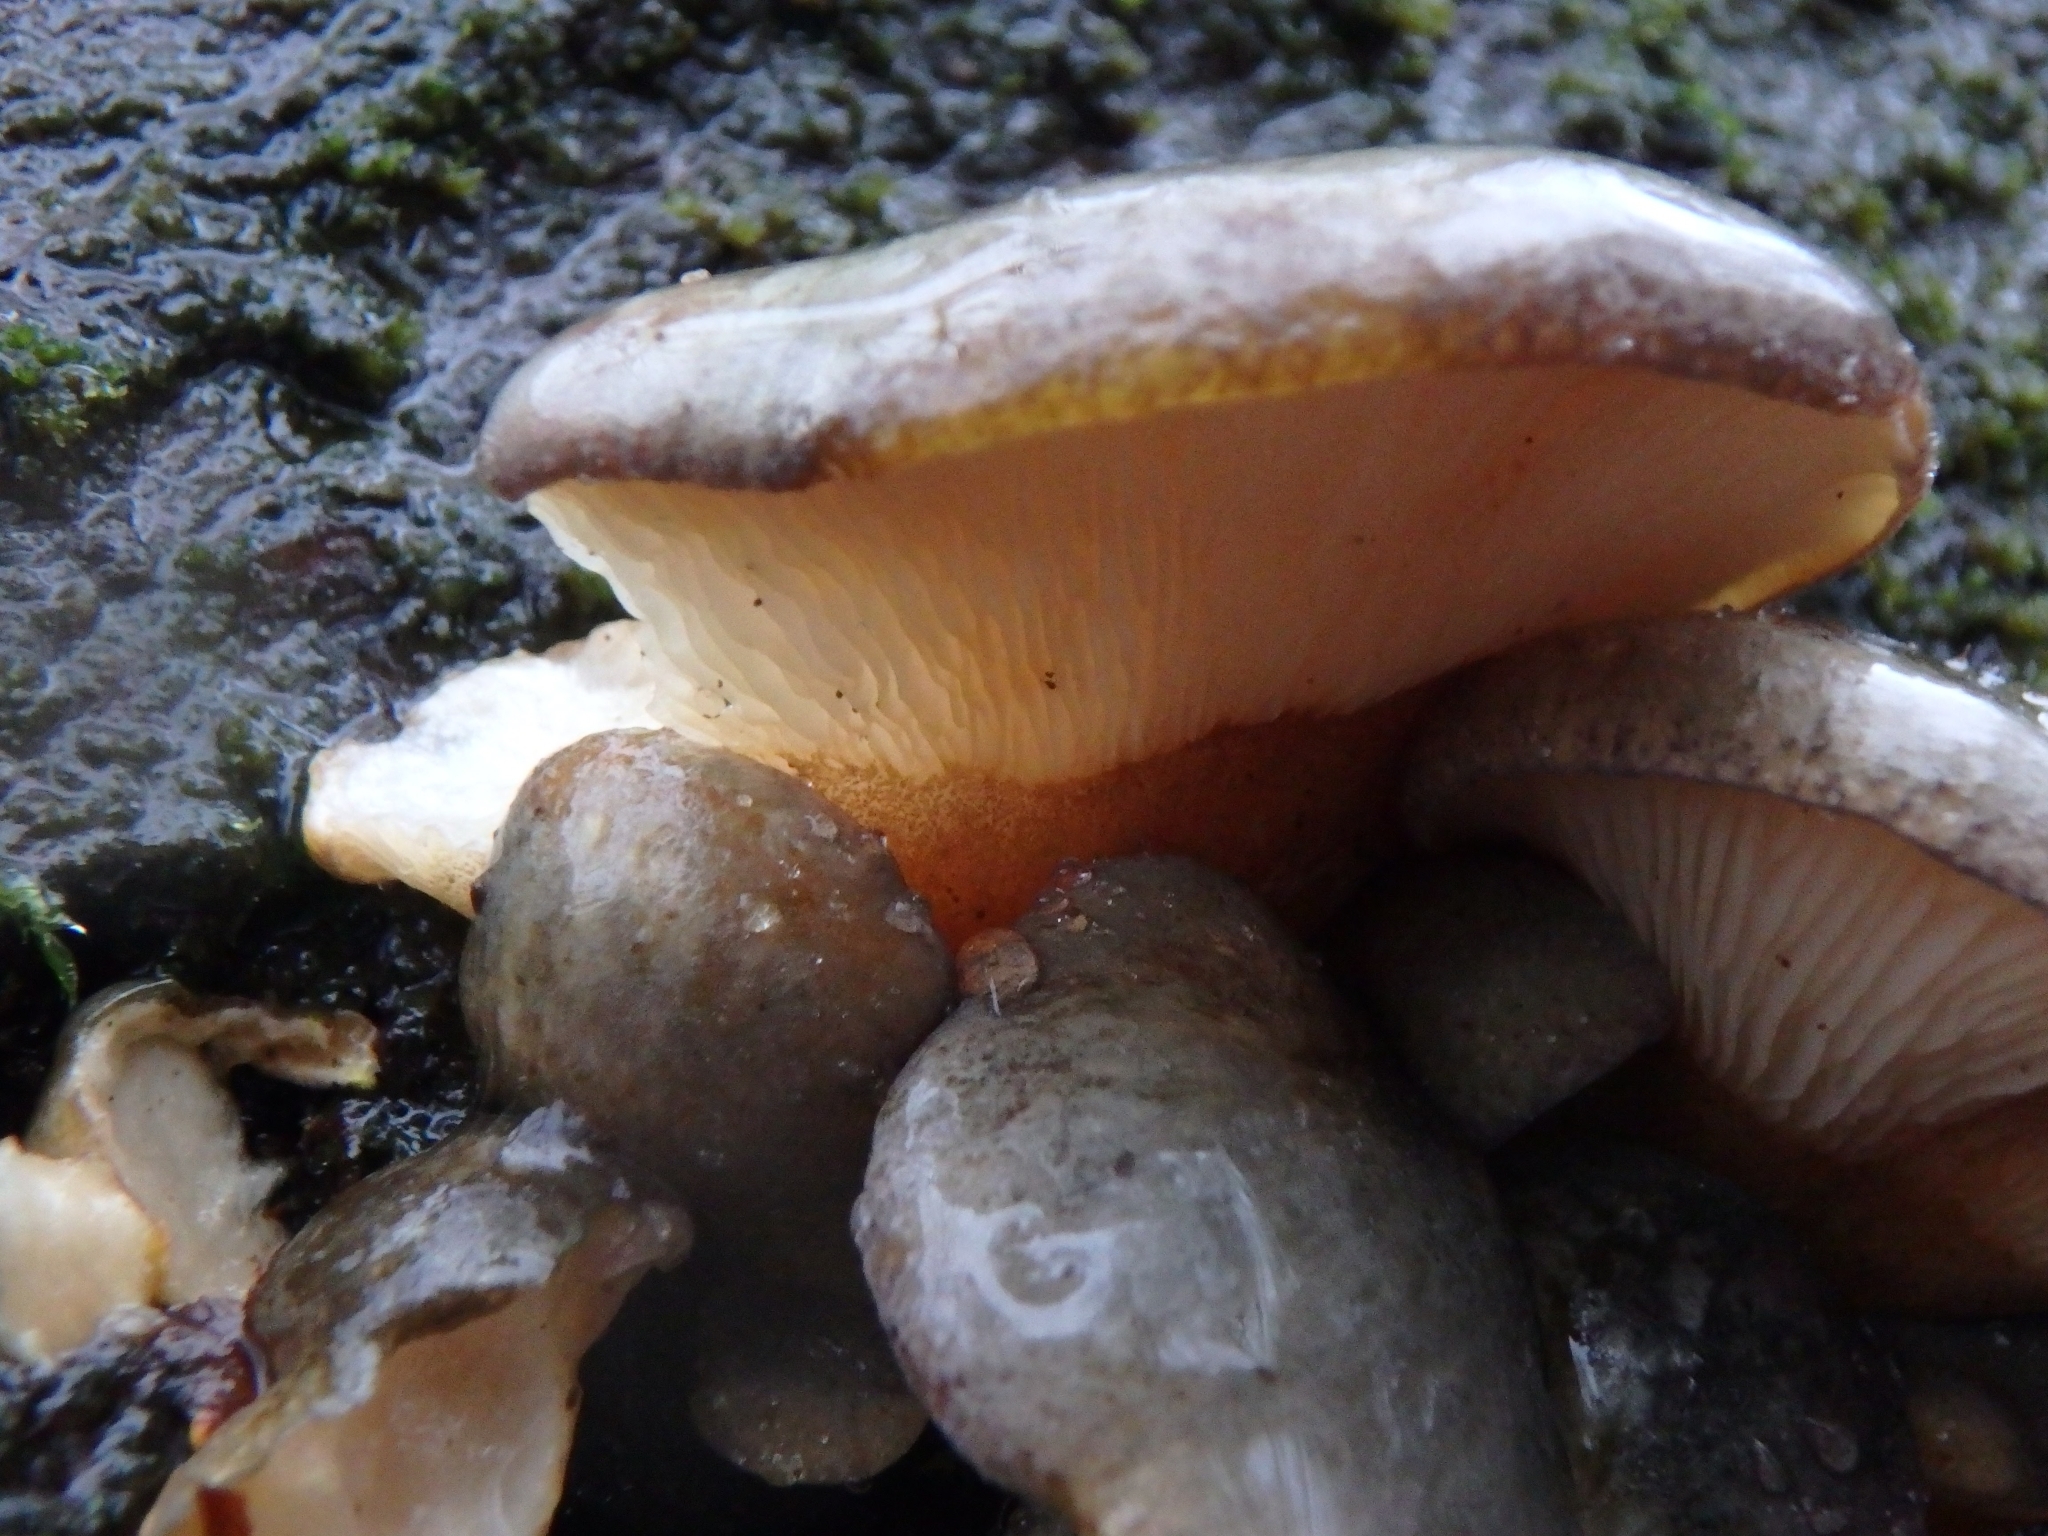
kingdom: Fungi
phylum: Basidiomycota
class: Agaricomycetes
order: Agaricales
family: Sarcomyxaceae
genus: Sarcomyxa
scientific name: Sarcomyxa serotina
